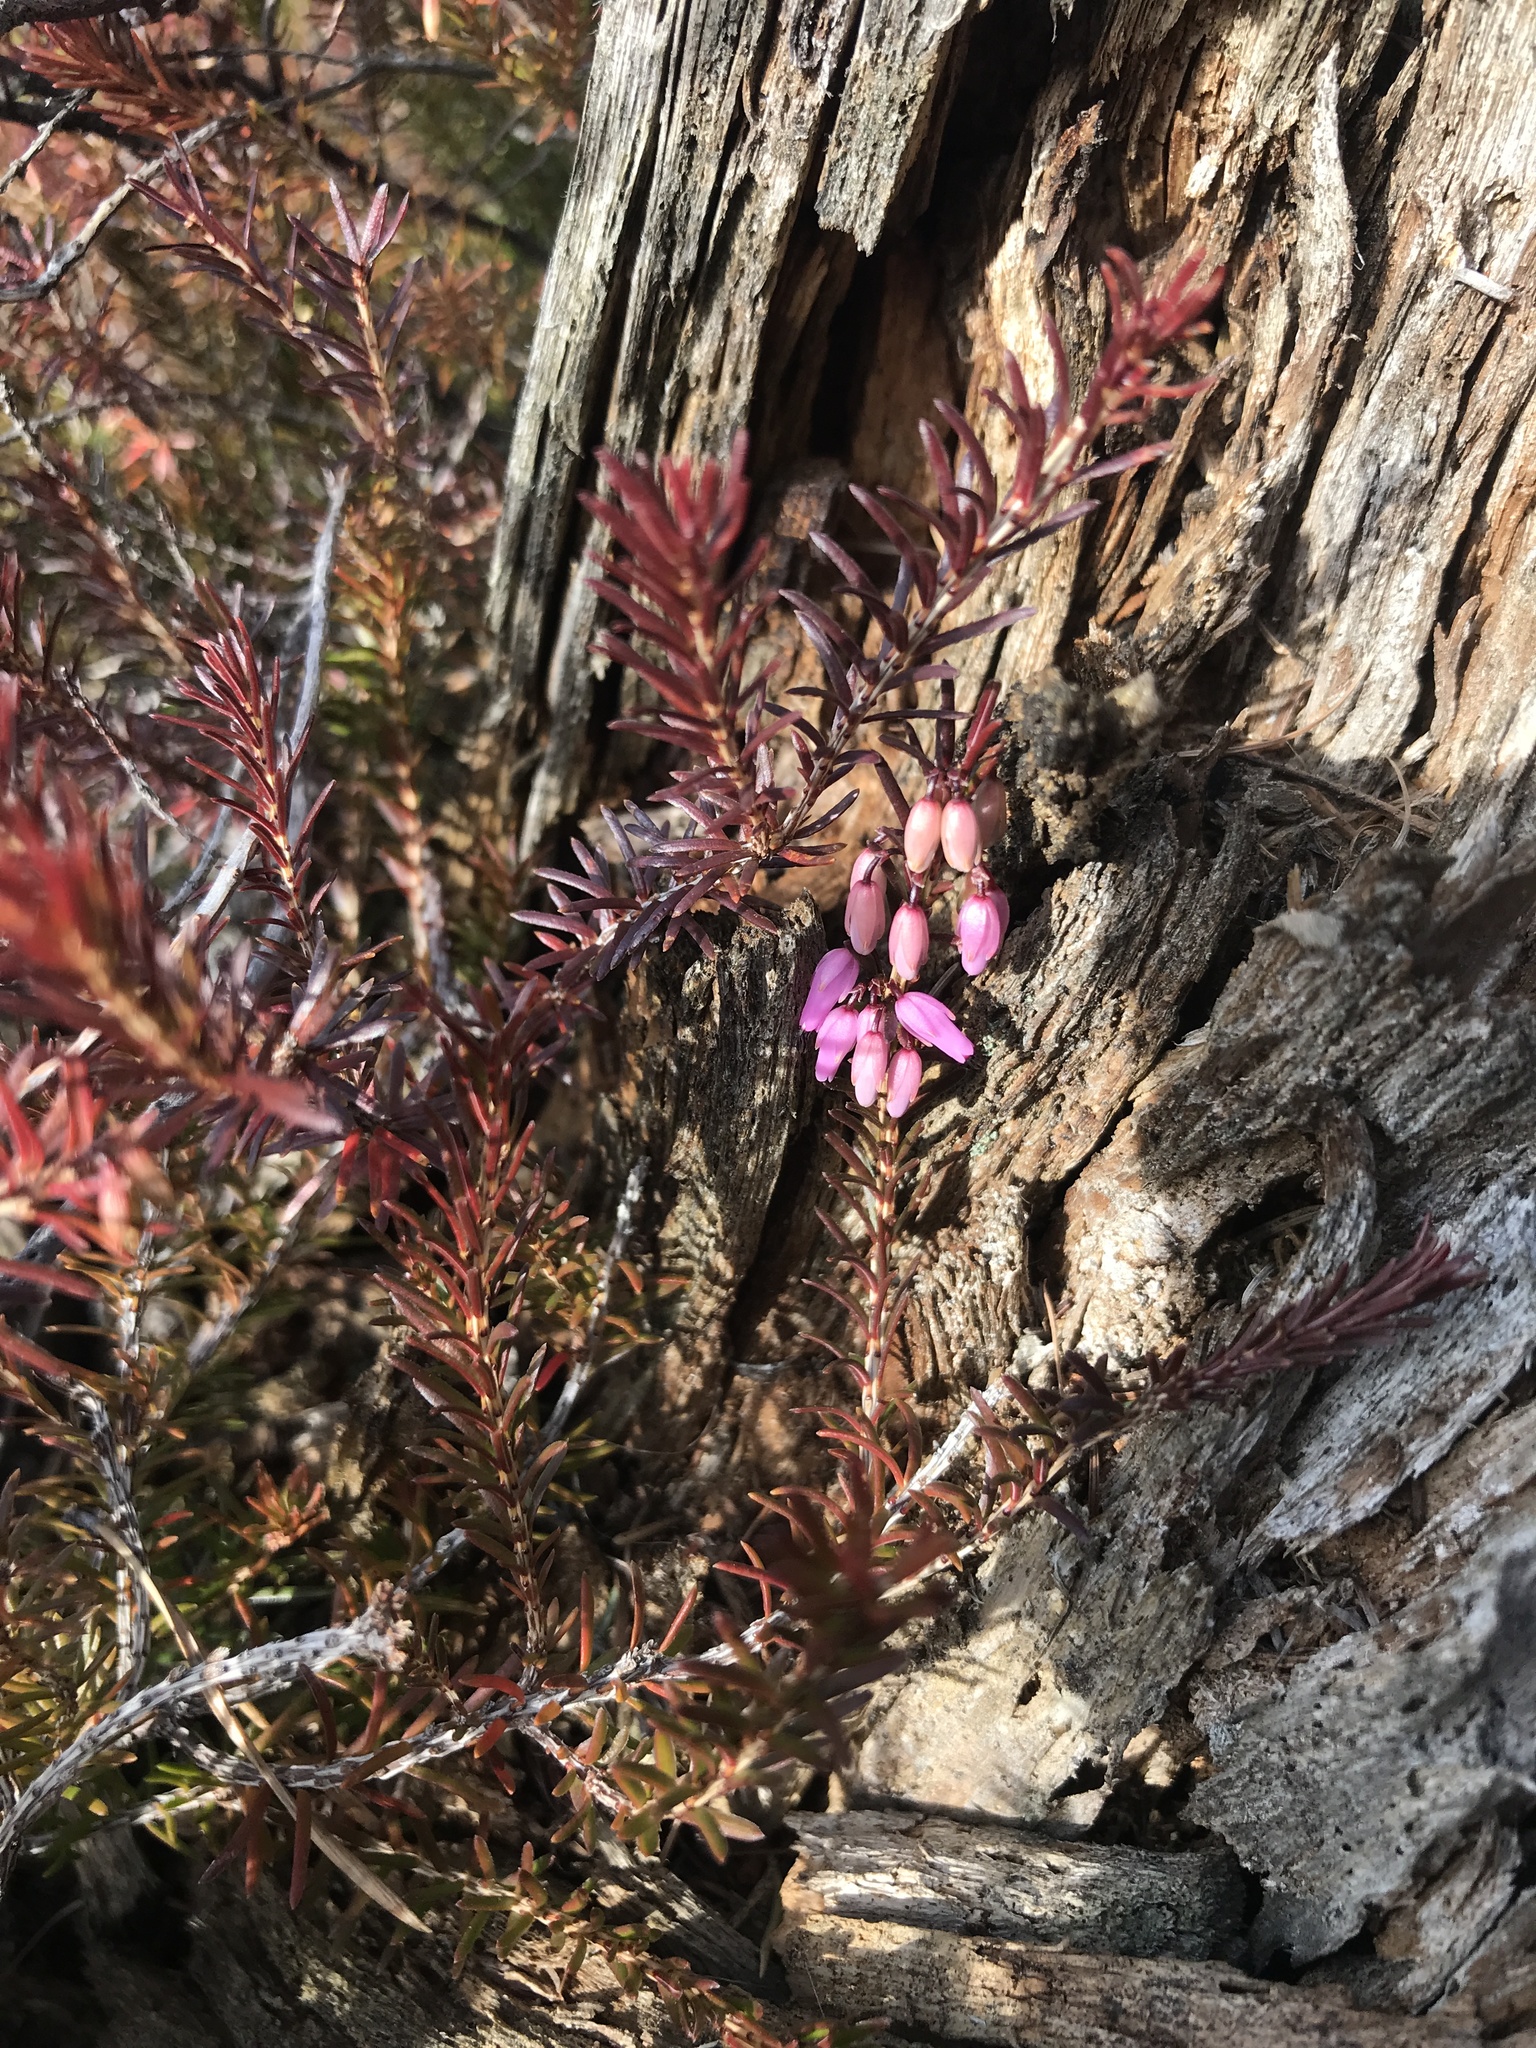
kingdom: Plantae
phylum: Tracheophyta
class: Magnoliopsida
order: Ericales
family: Ericaceae
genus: Erica
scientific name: Erica carnea
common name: Winter heath
